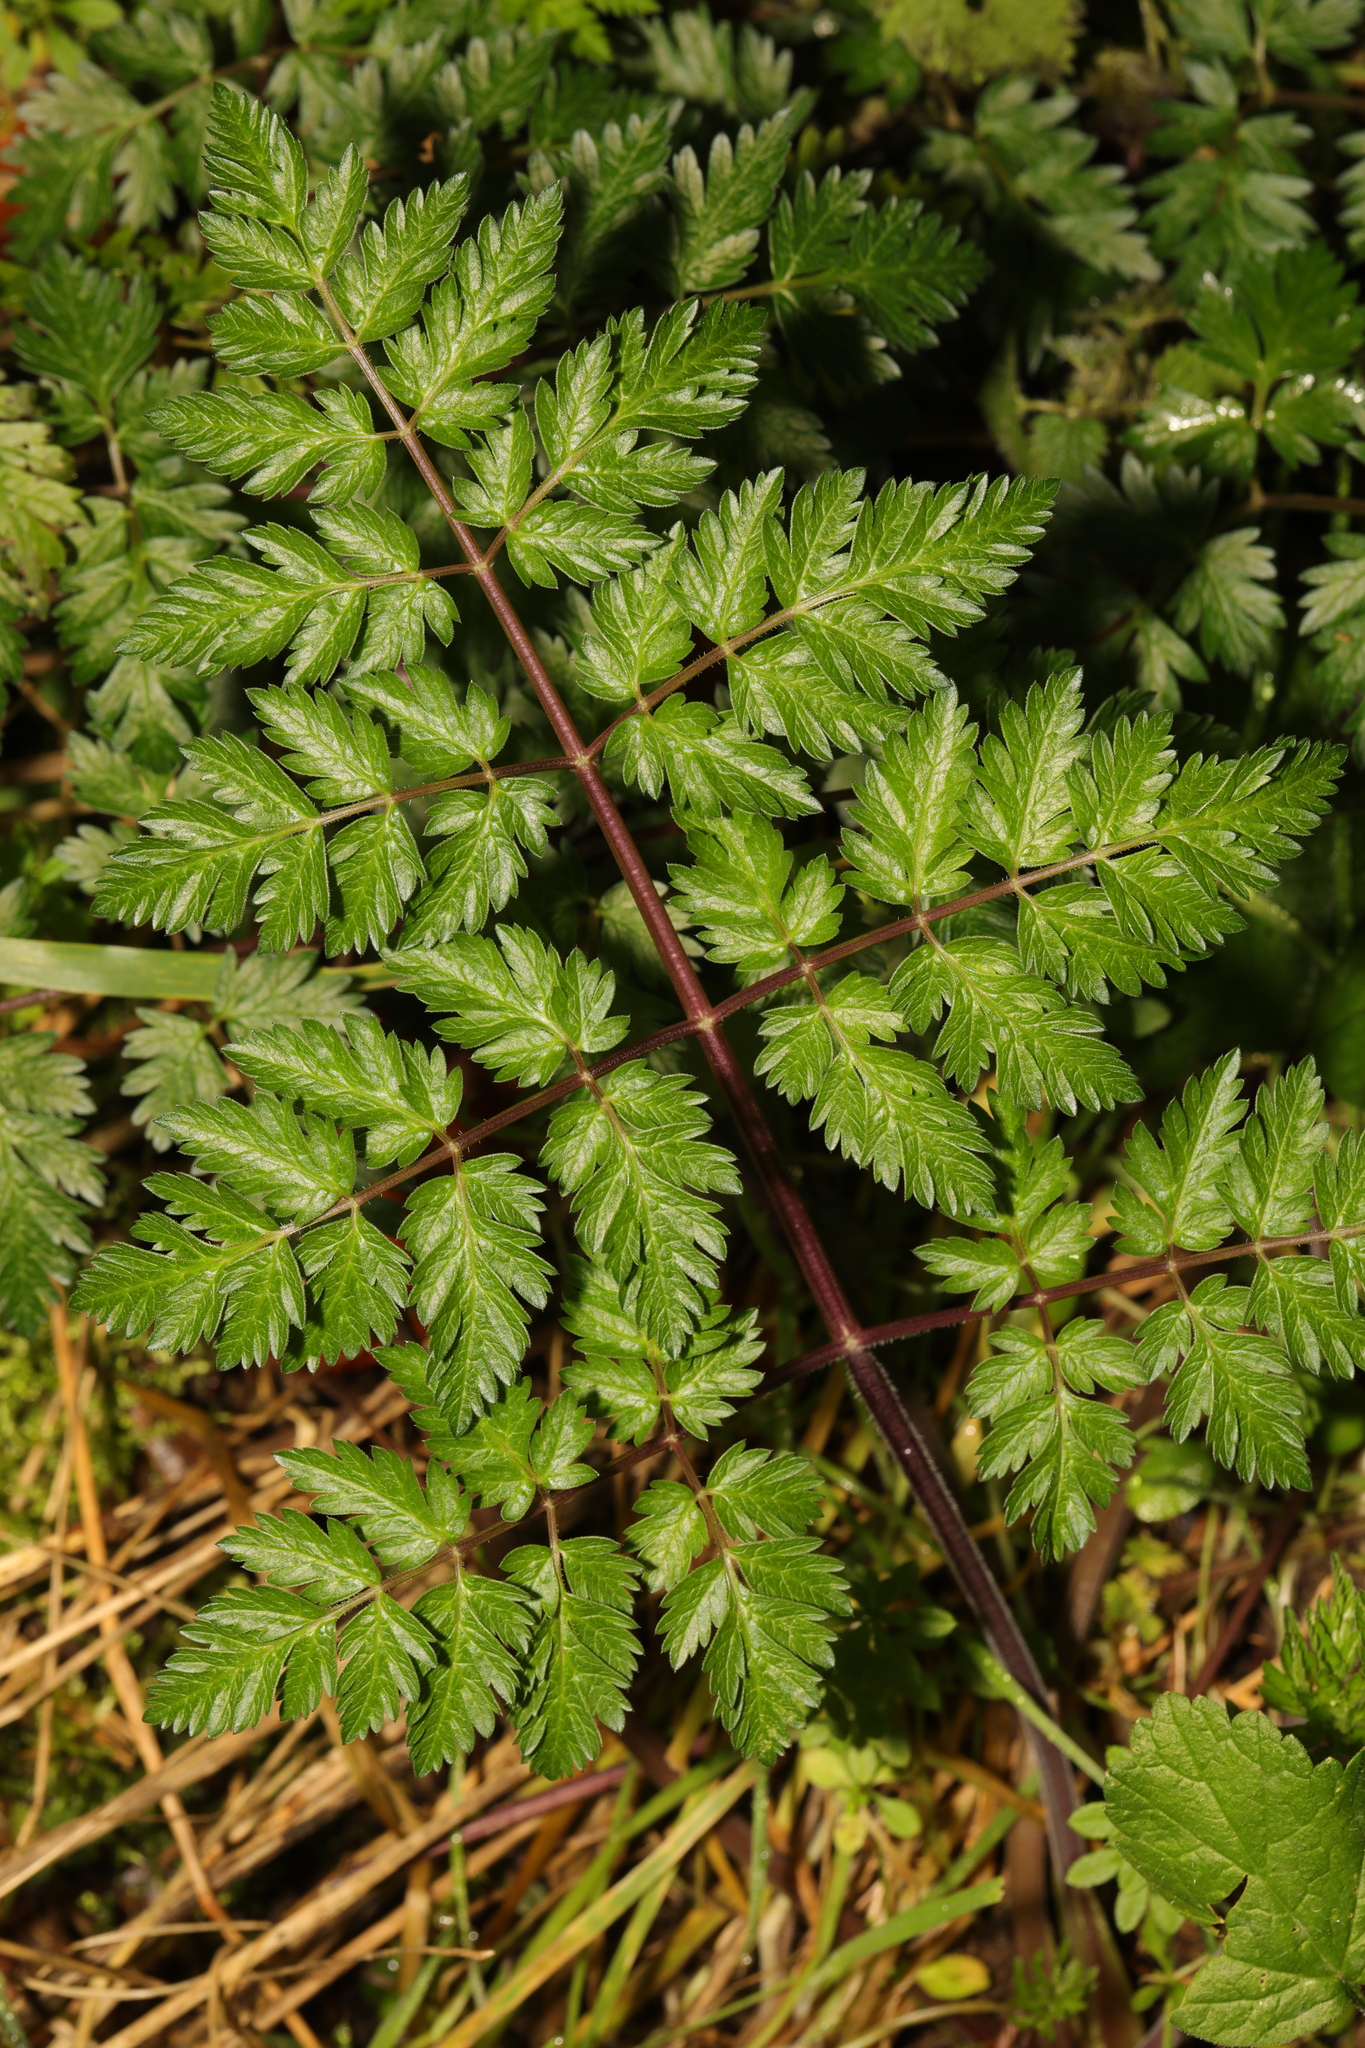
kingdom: Plantae
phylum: Tracheophyta
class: Magnoliopsida
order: Apiales
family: Apiaceae
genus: Anthriscus
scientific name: Anthriscus sylvestris
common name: Cow parsley
